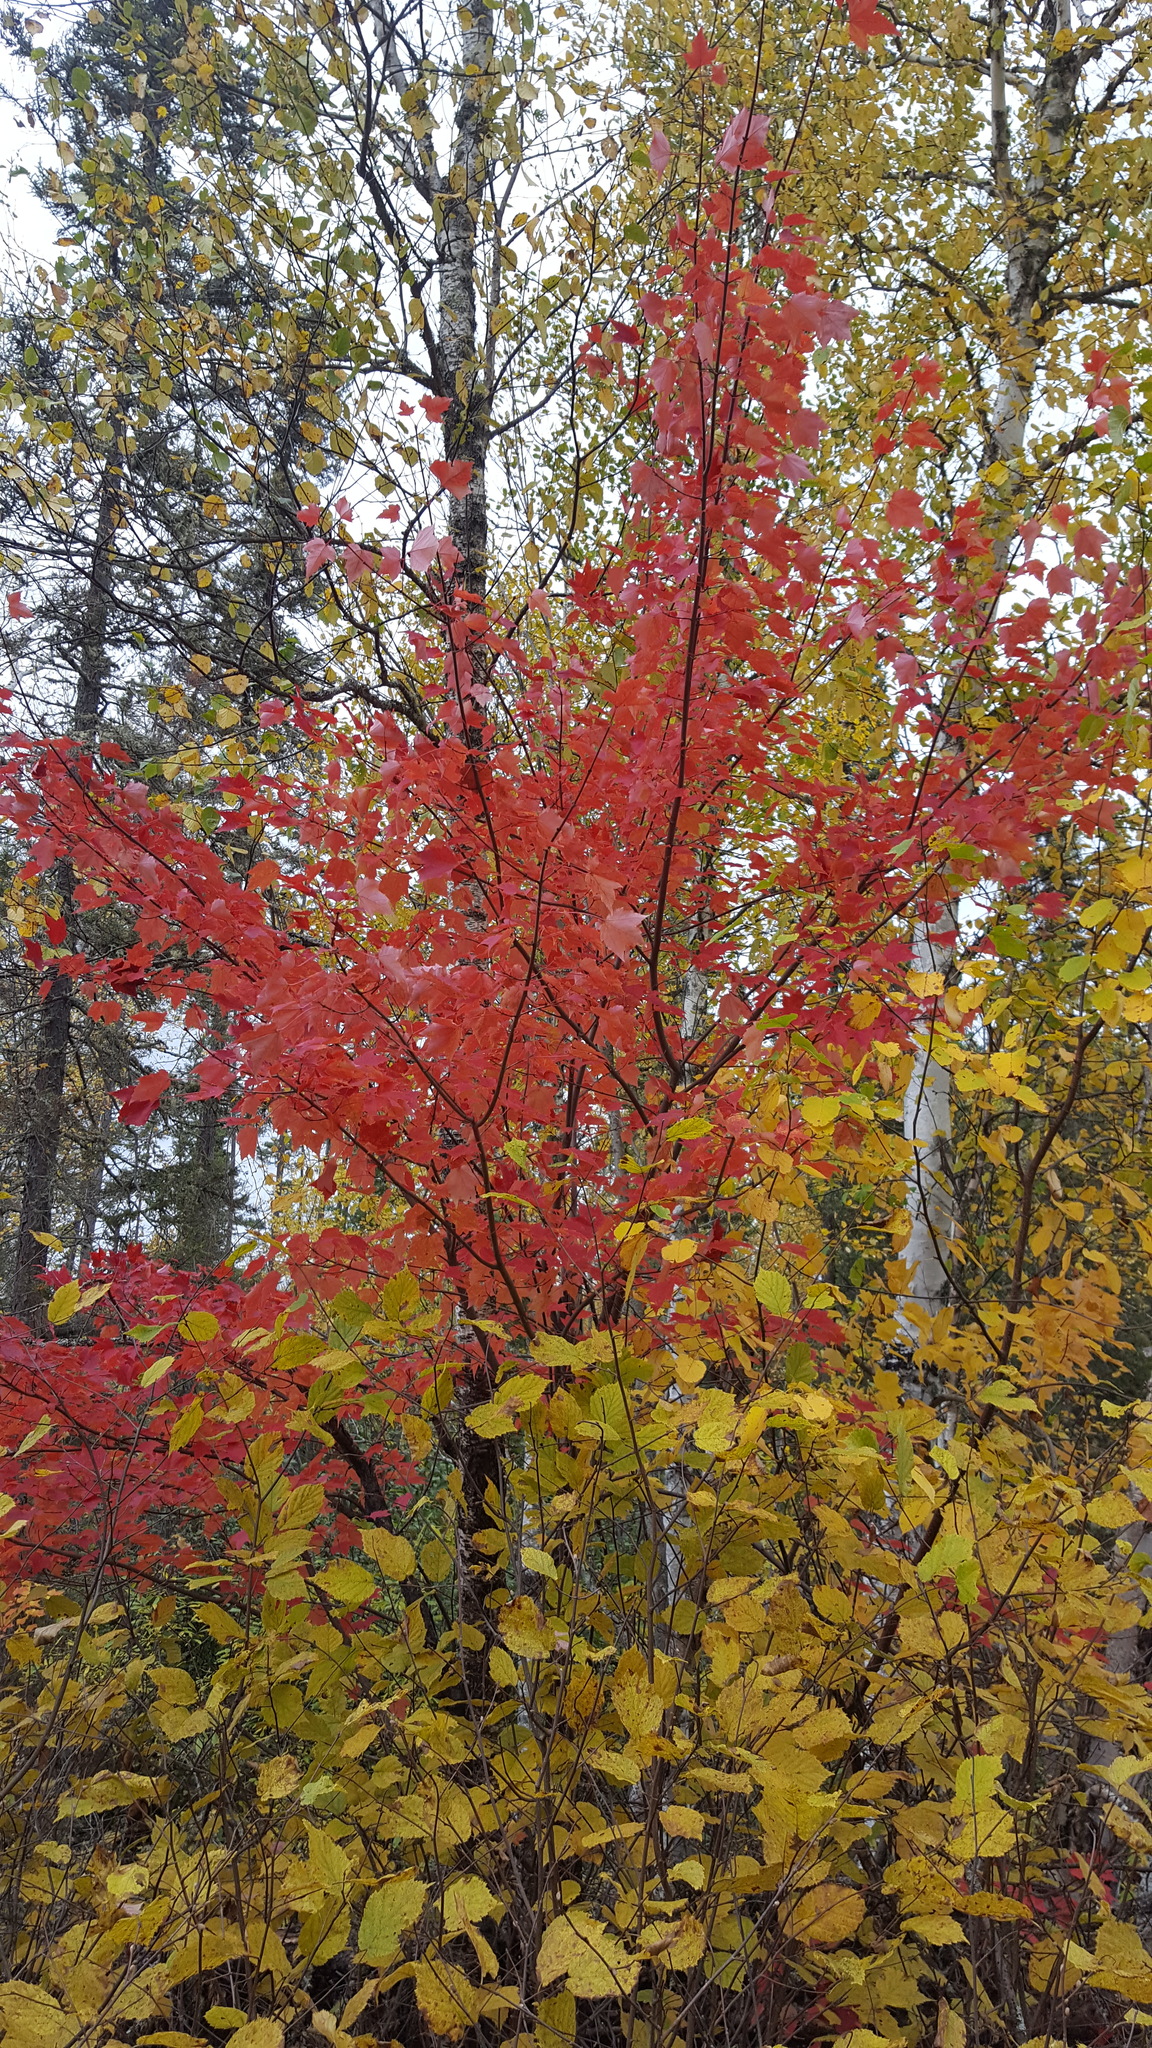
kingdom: Plantae
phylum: Tracheophyta
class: Magnoliopsida
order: Sapindales
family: Sapindaceae
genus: Acer
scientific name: Acer rubrum
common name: Red maple
